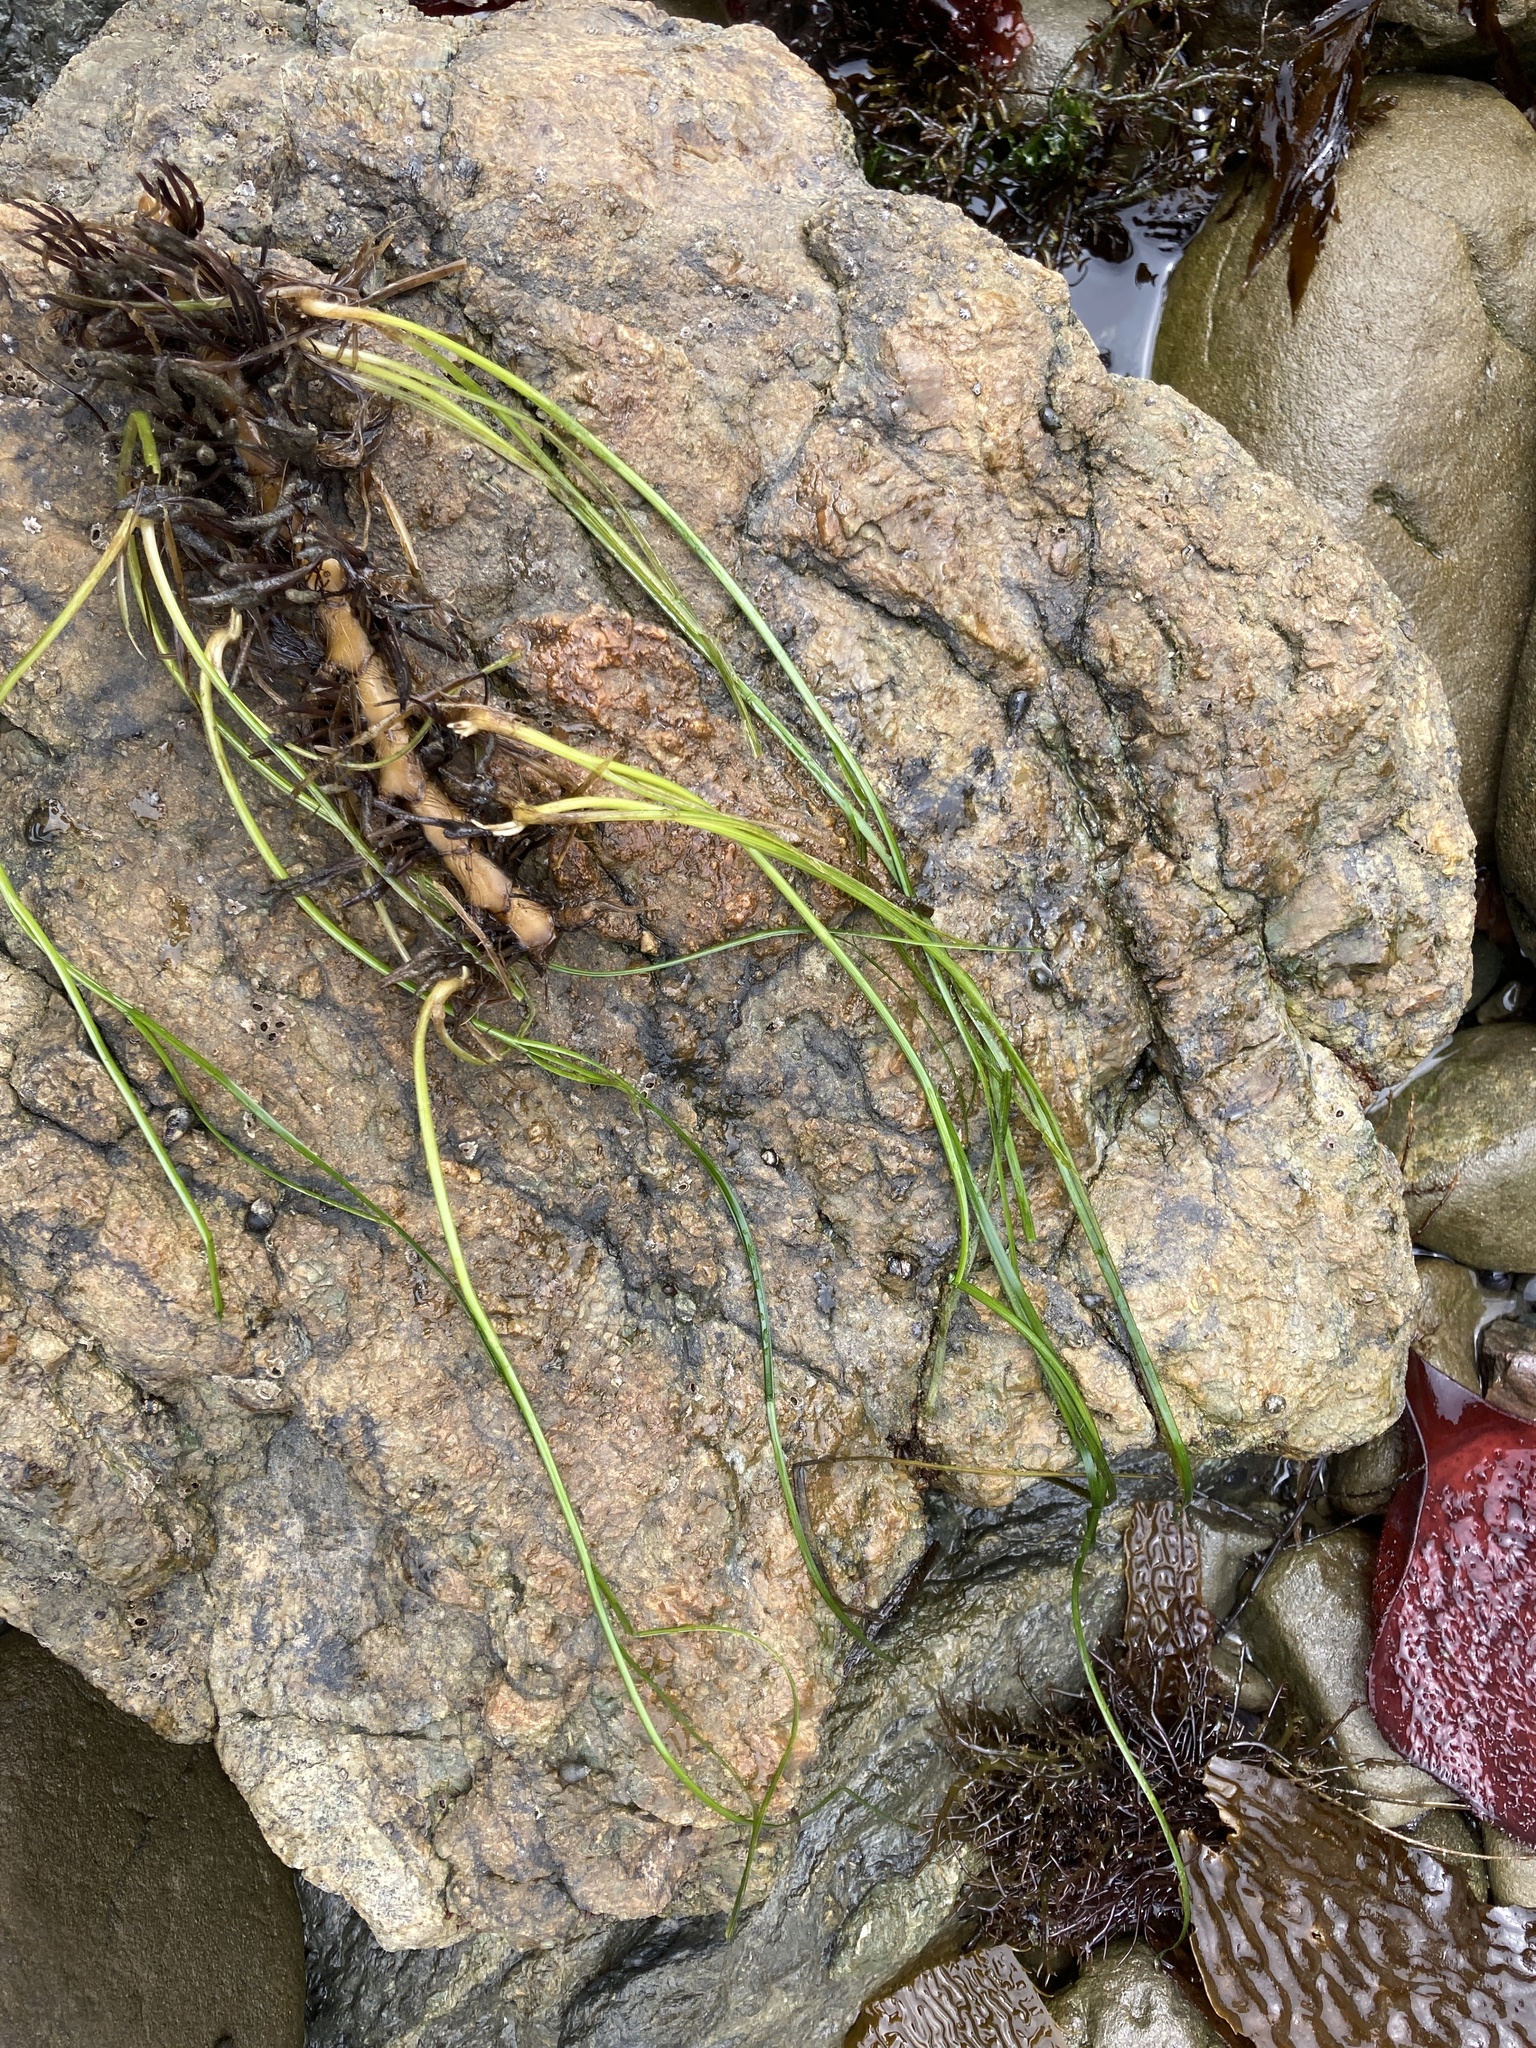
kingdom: Plantae
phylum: Tracheophyta
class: Liliopsida
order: Alismatales
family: Zosteraceae
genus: Phyllospadix
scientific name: Phyllospadix torreyi
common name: Surfgrass
